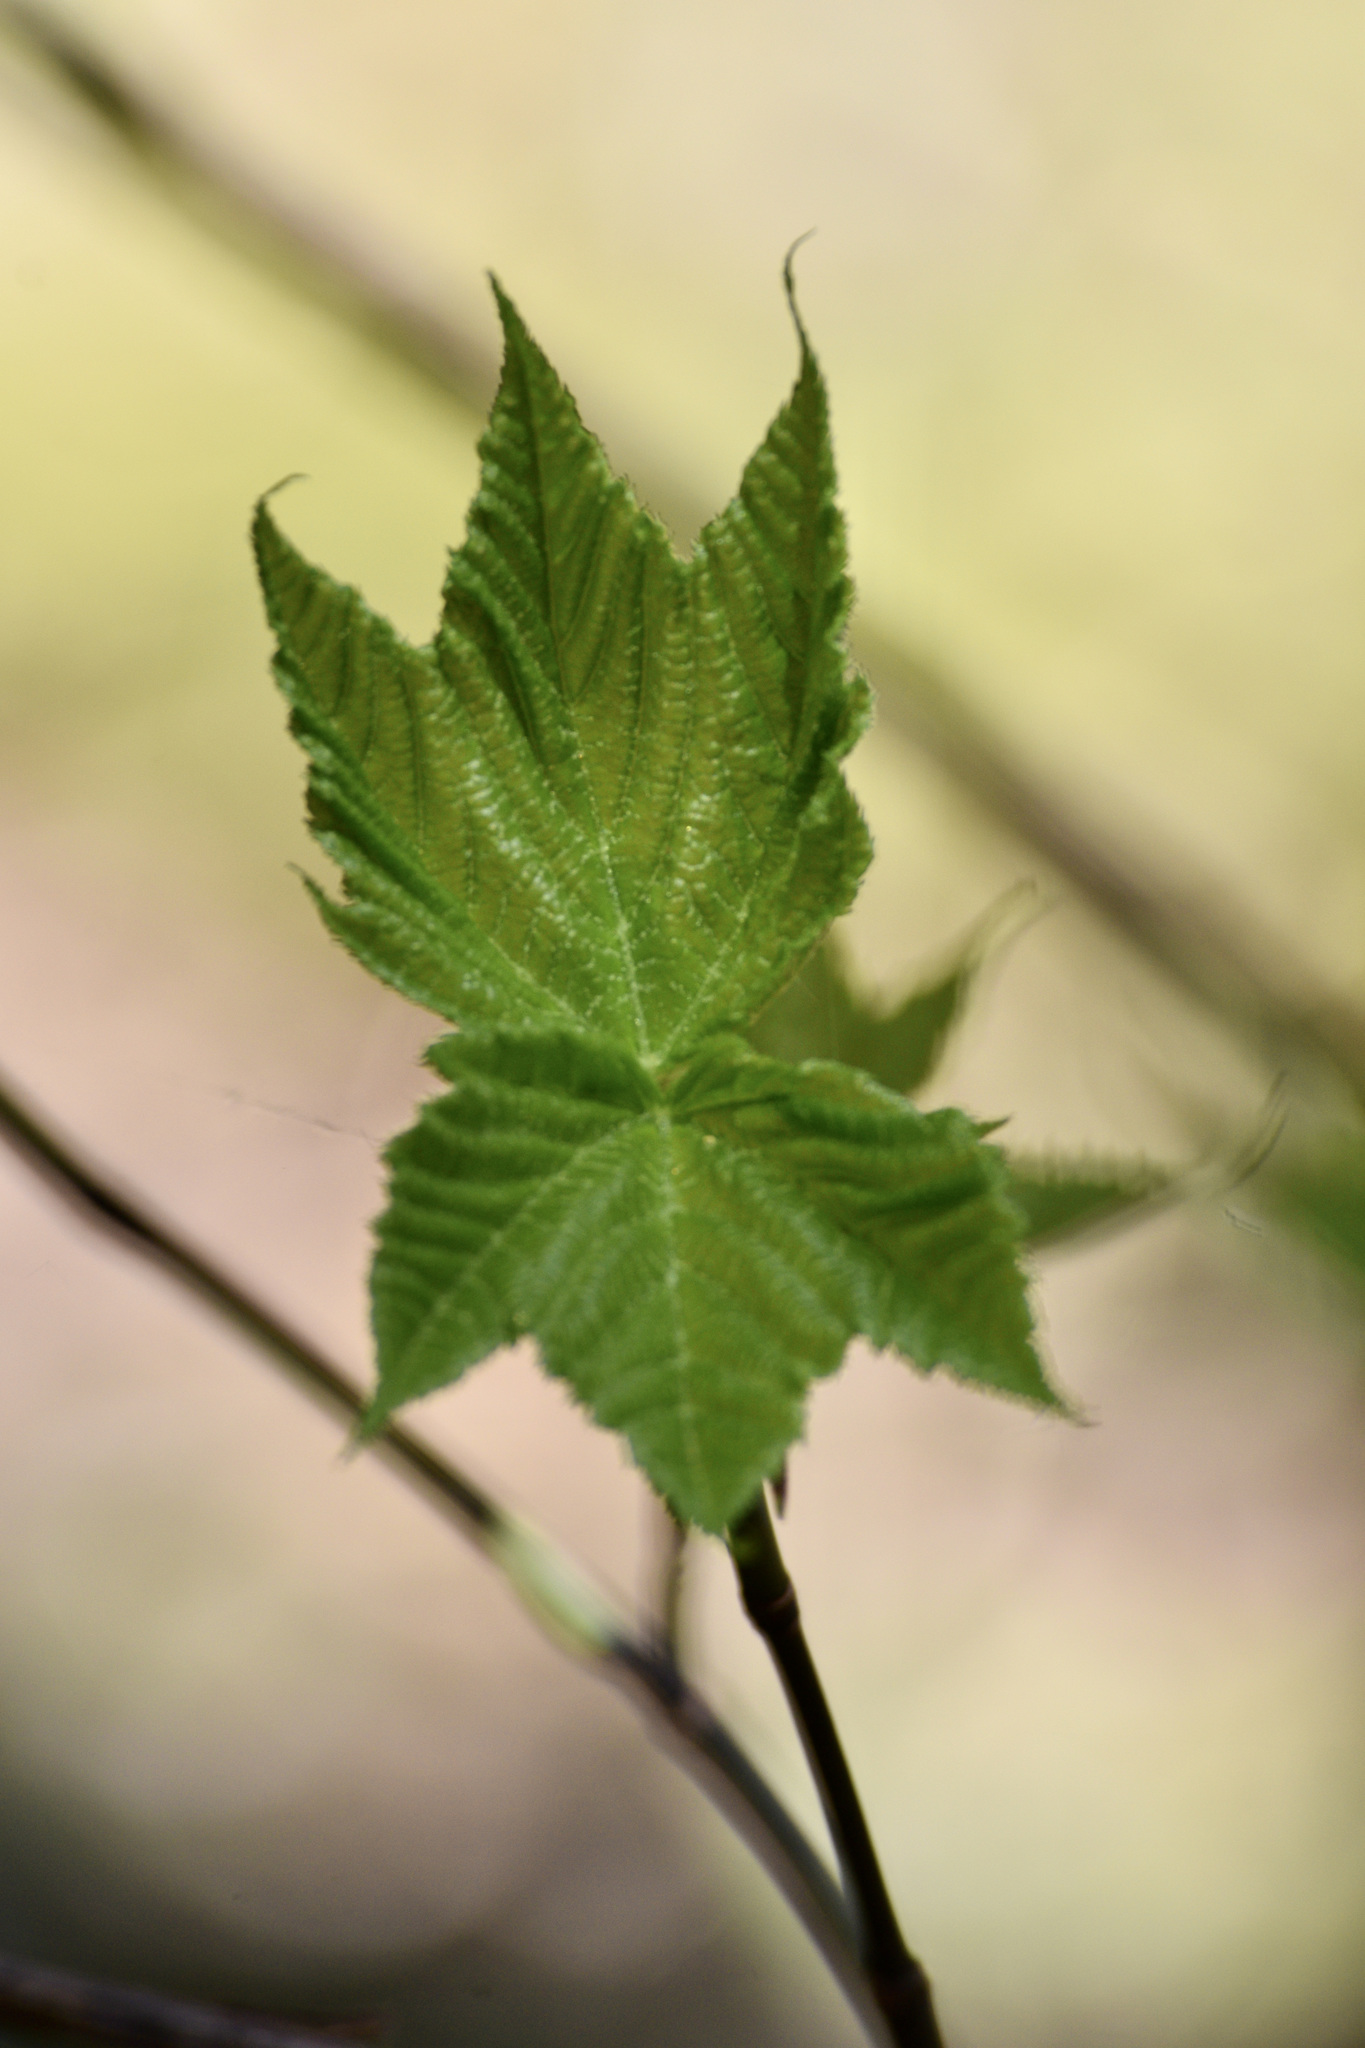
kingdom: Plantae
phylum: Tracheophyta
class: Magnoliopsida
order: Sapindales
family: Sapindaceae
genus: Acer
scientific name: Acer pensylvanicum
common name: Moosewood
